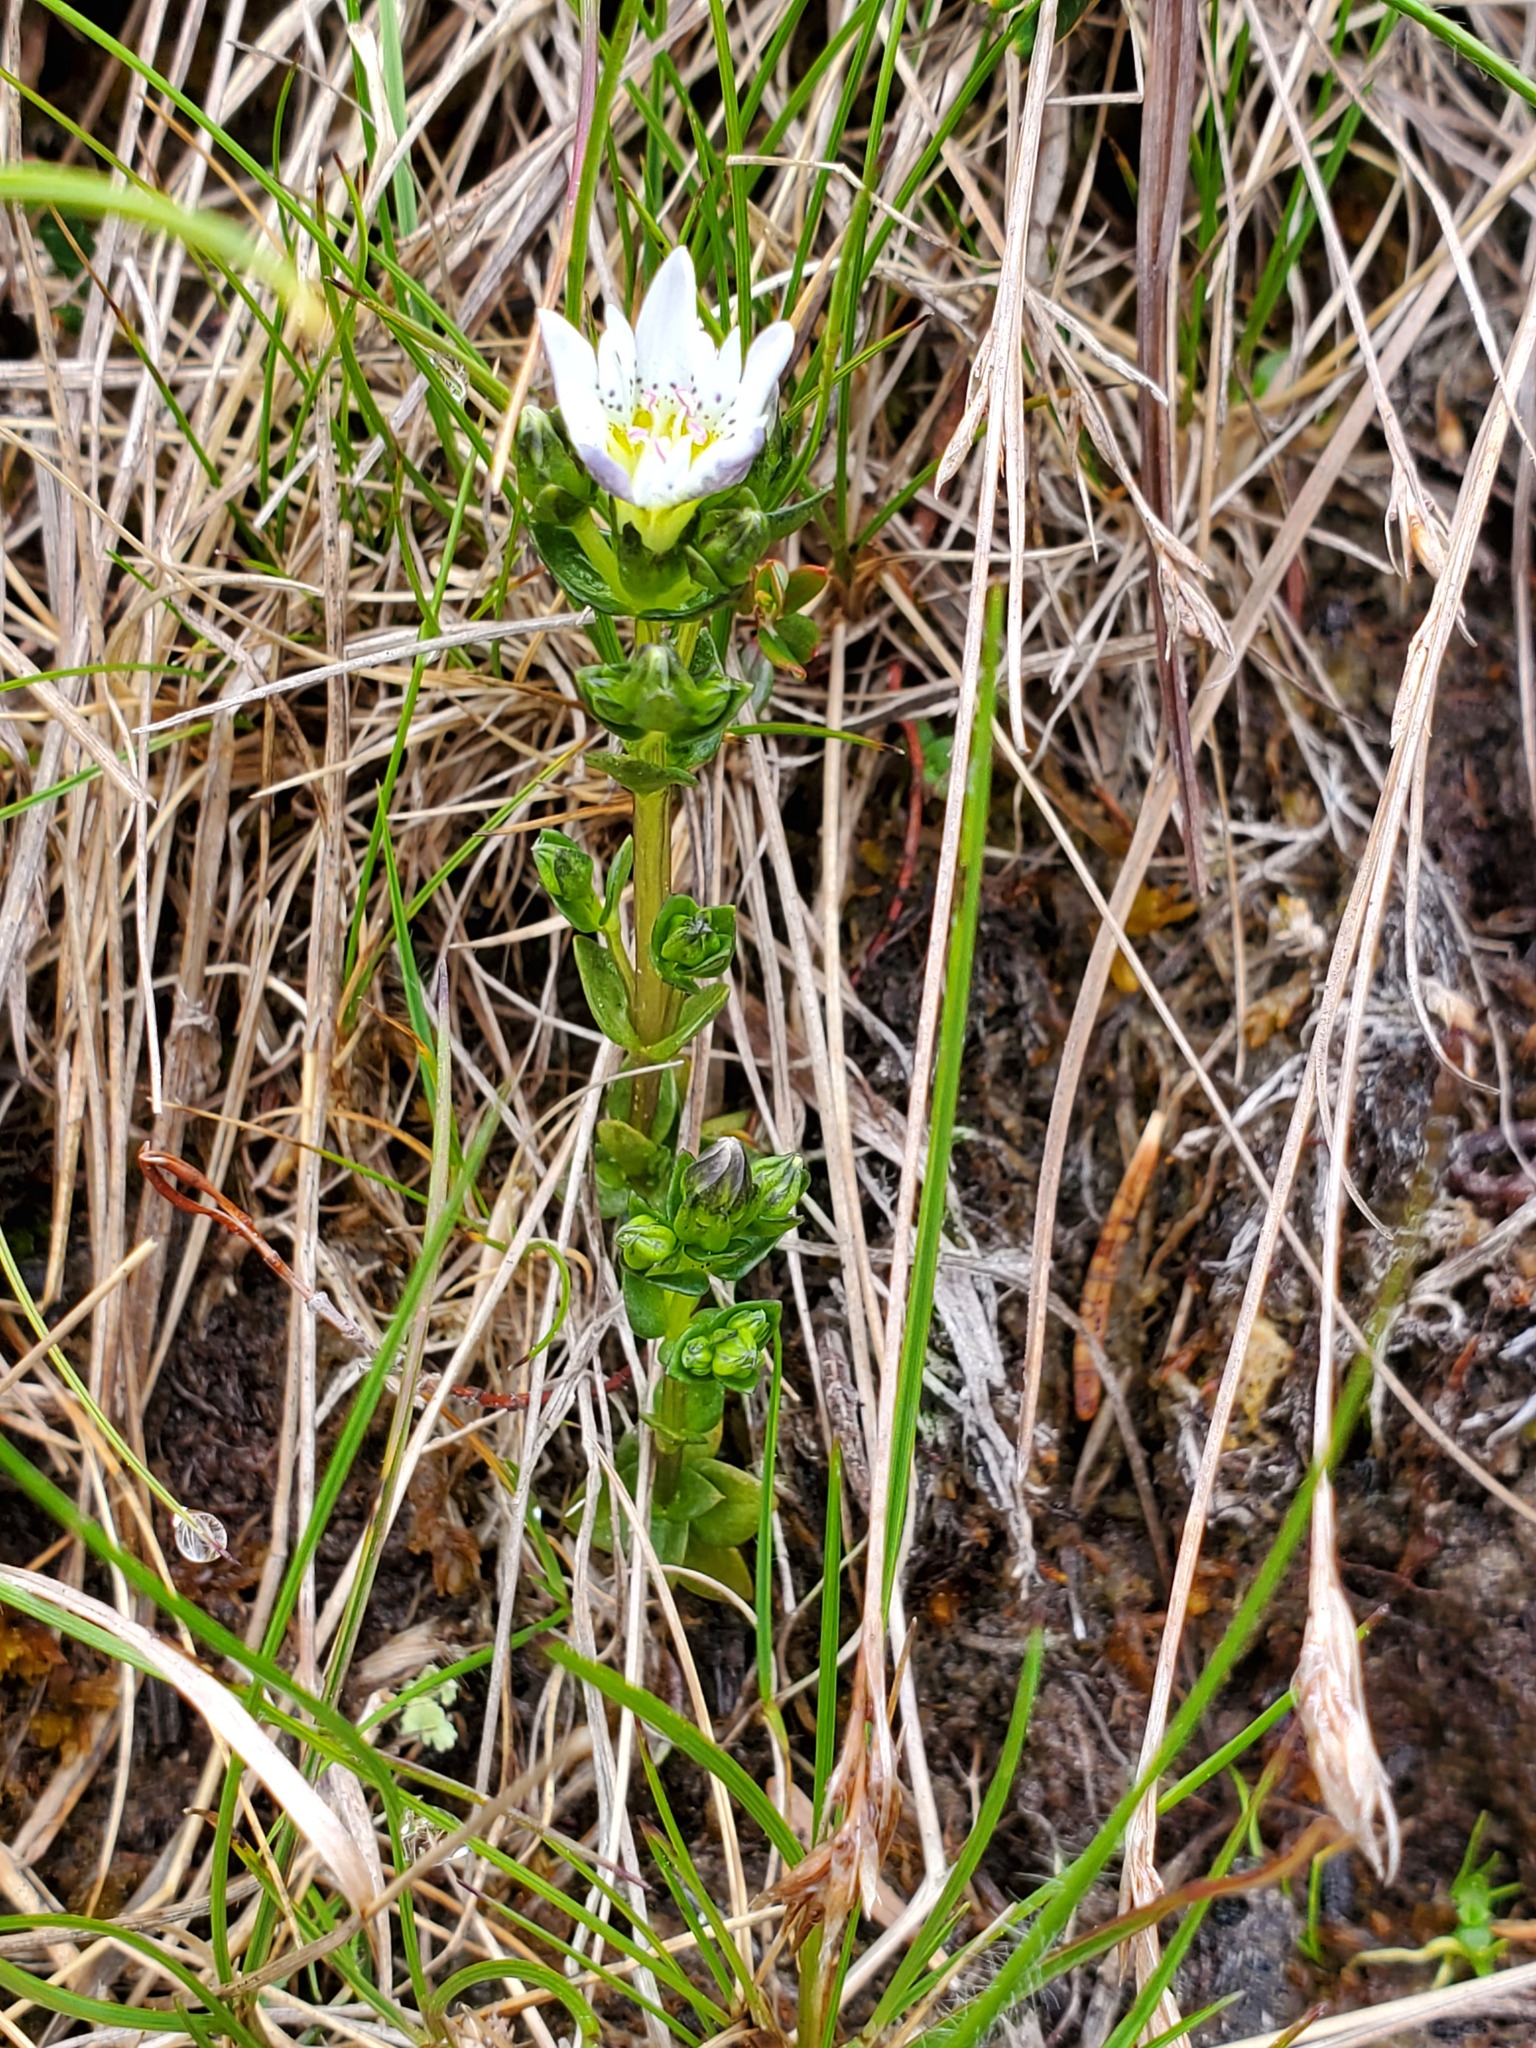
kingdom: Plantae
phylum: Tracheophyta
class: Magnoliopsida
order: Gentianales
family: Gentianaceae
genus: Gentiana
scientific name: Gentiana douglasiana
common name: Swamp gentian
